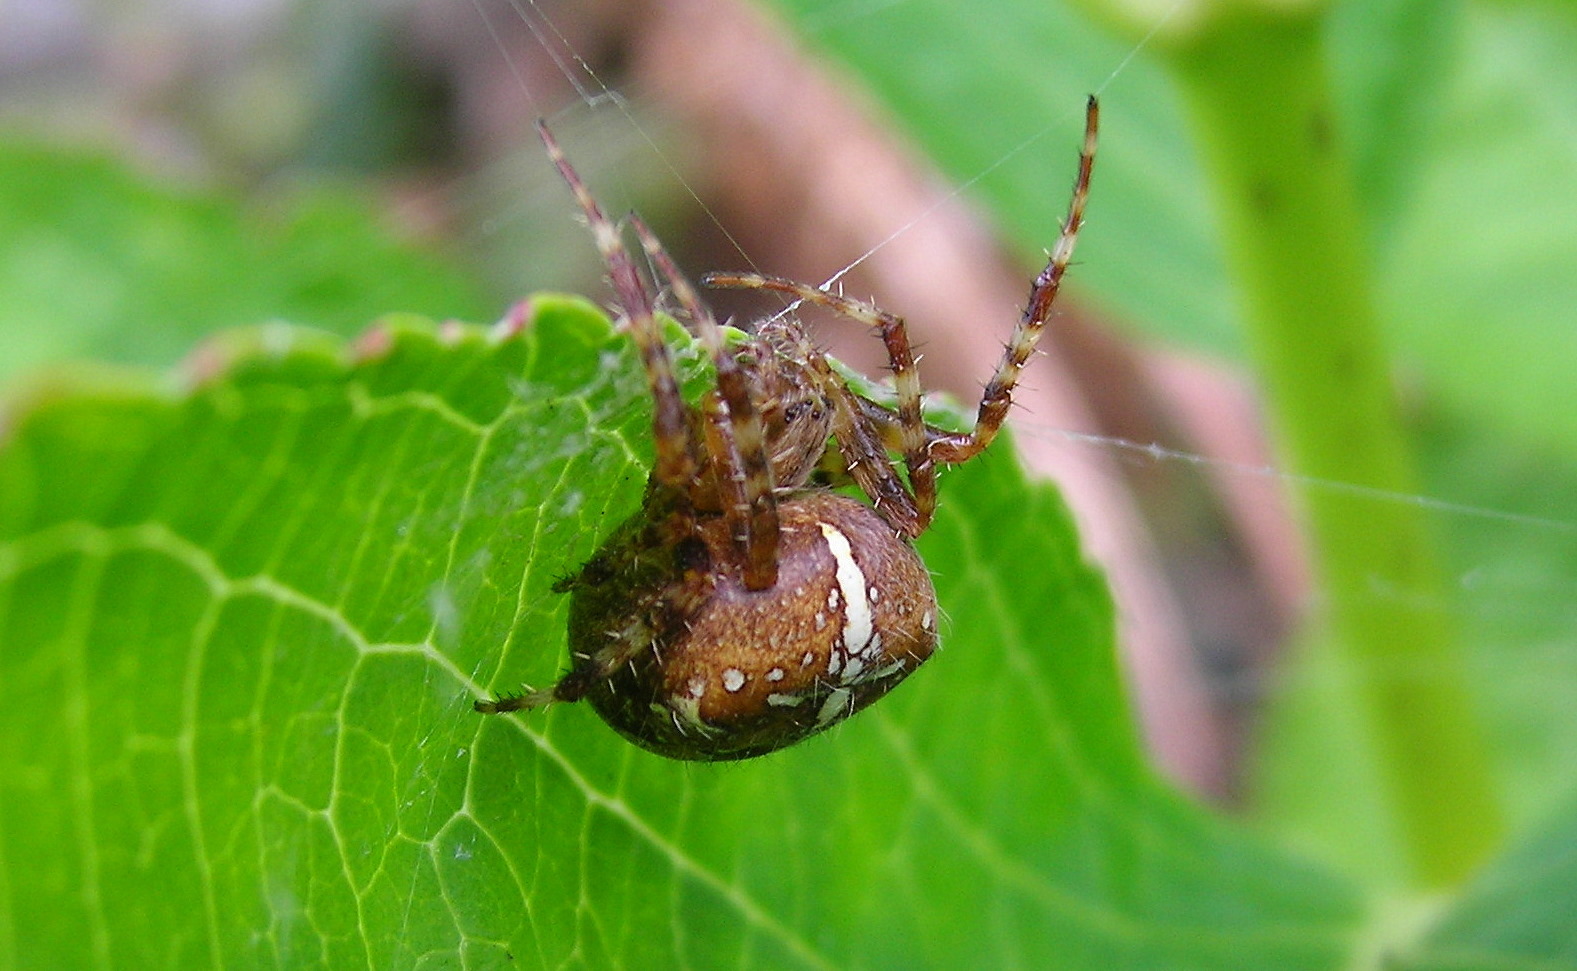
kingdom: Animalia
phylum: Arthropoda
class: Arachnida
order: Araneae
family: Araneidae
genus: Araneus
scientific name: Araneus diadematus
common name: Cross orbweaver
